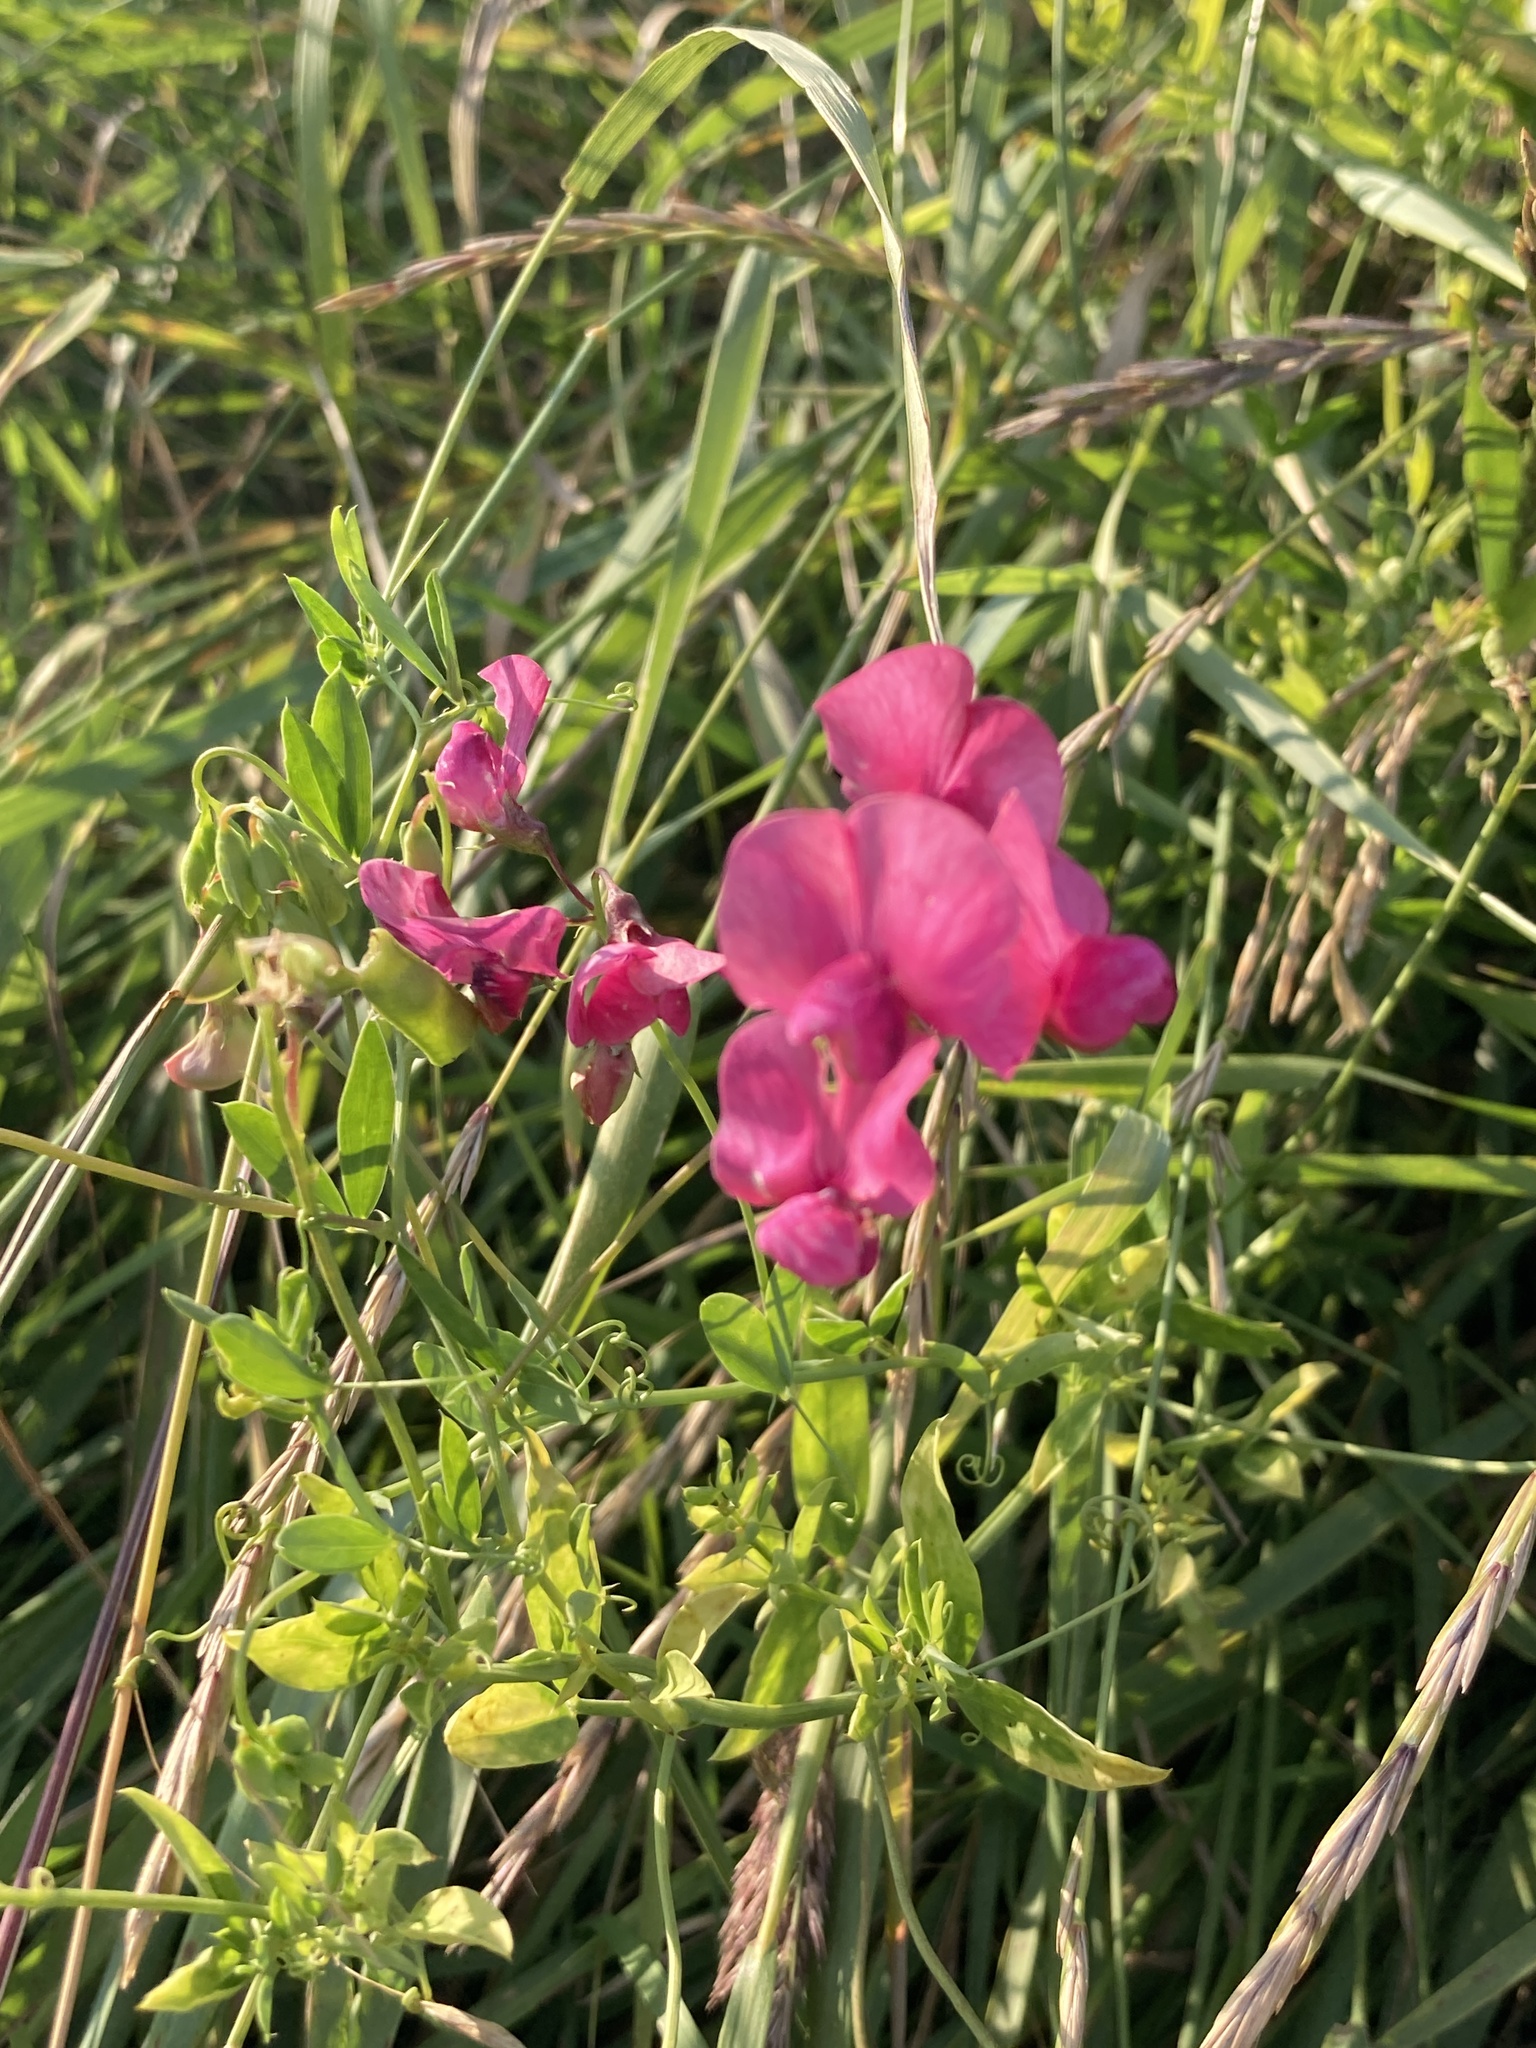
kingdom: Plantae
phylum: Tracheophyta
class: Magnoliopsida
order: Fabales
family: Fabaceae
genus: Lathyrus
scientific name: Lathyrus tuberosus
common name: Tuberous pea
